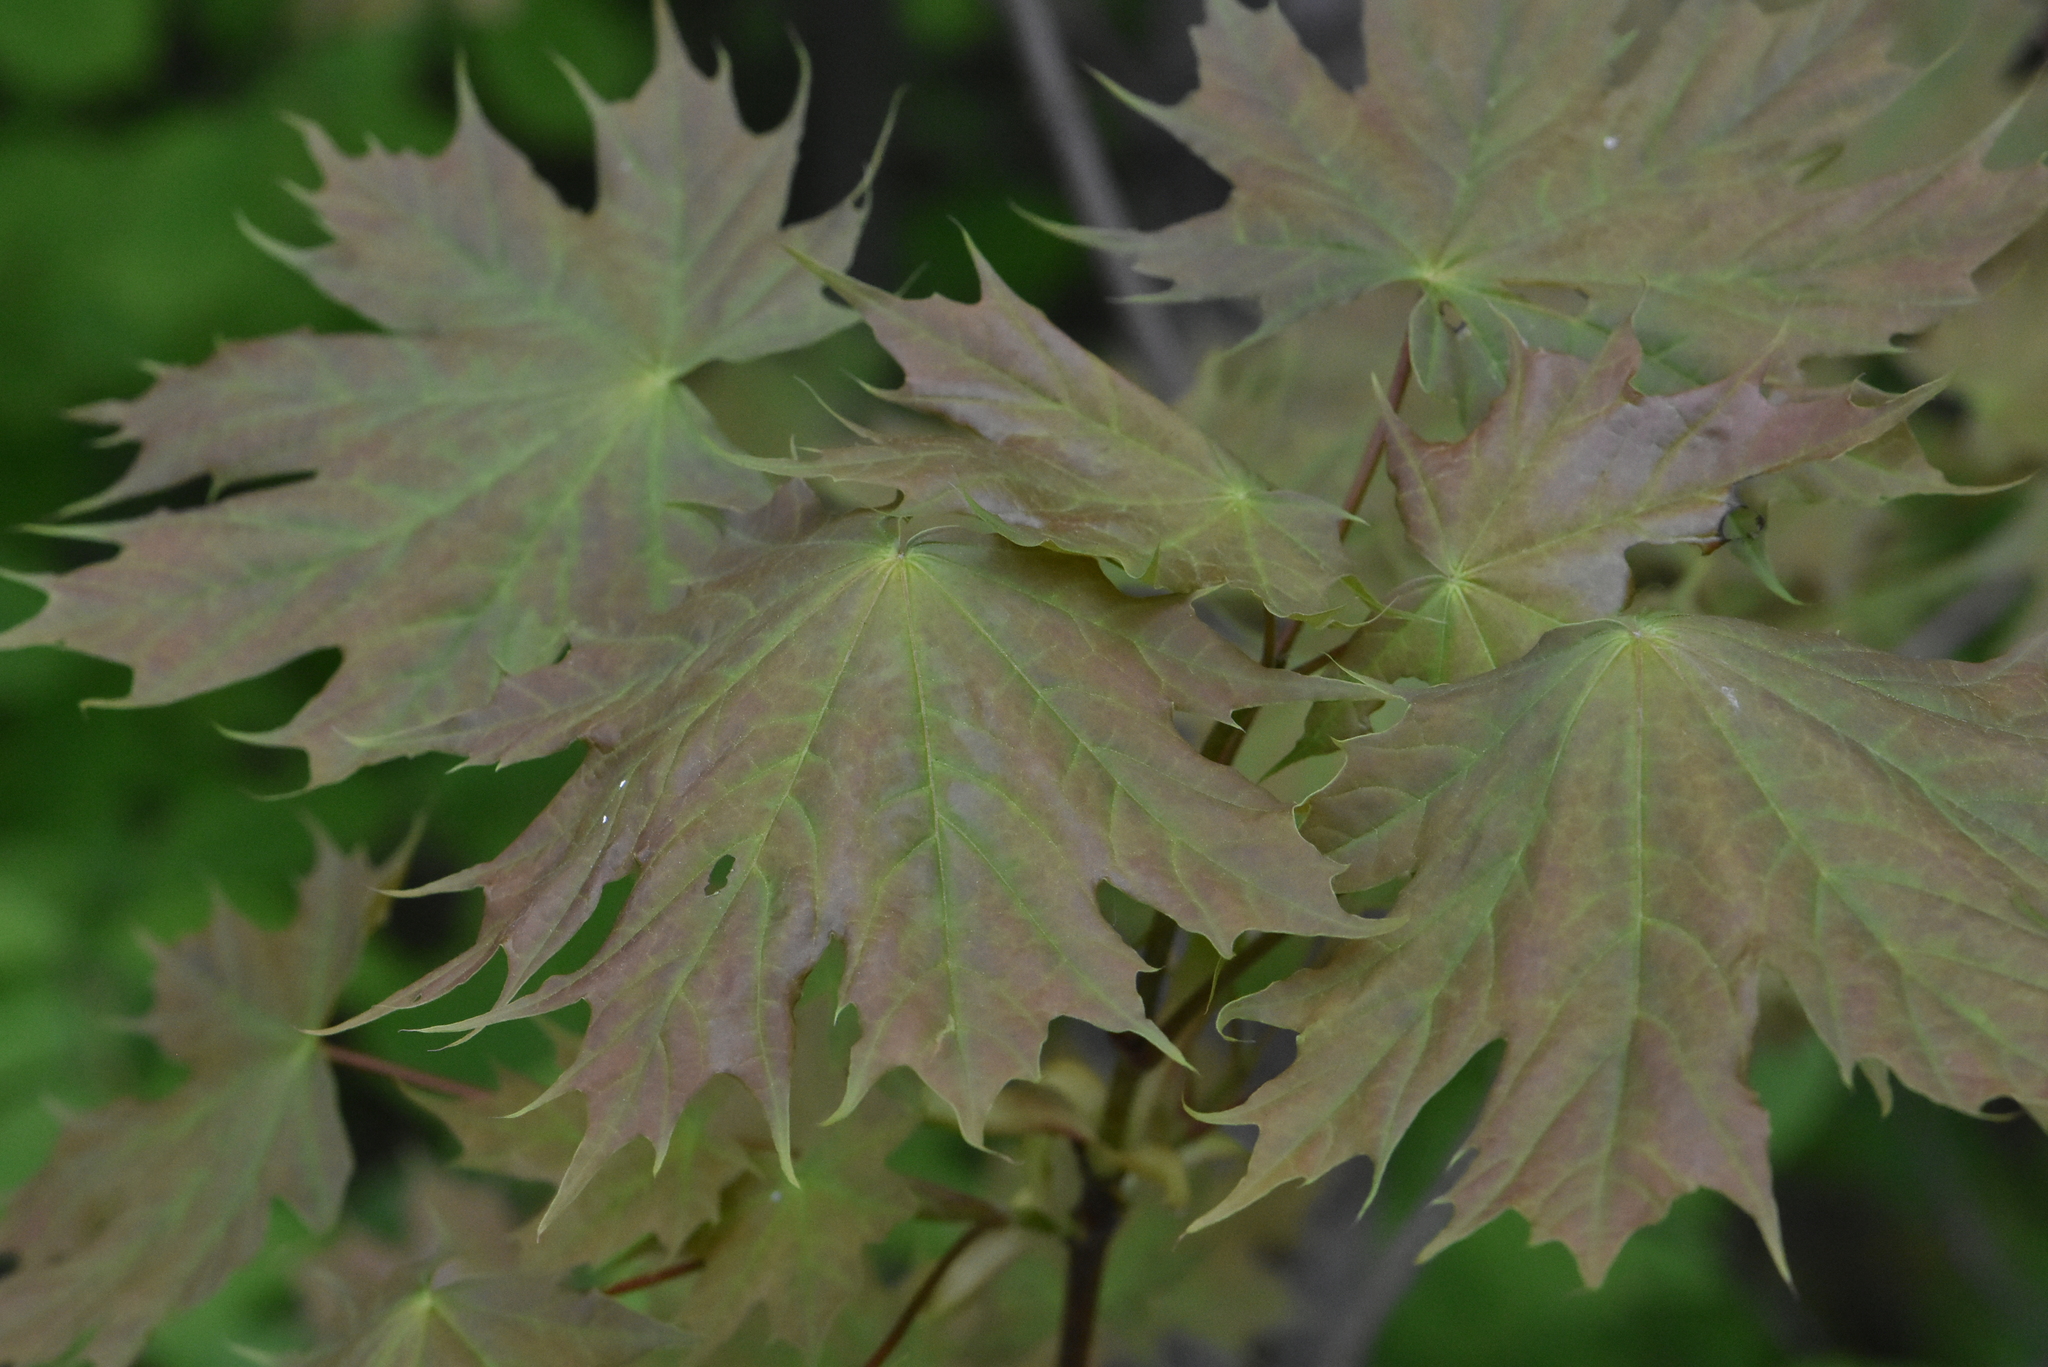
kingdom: Plantae
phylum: Tracheophyta
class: Magnoliopsida
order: Sapindales
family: Sapindaceae
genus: Acer
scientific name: Acer platanoides
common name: Norway maple
